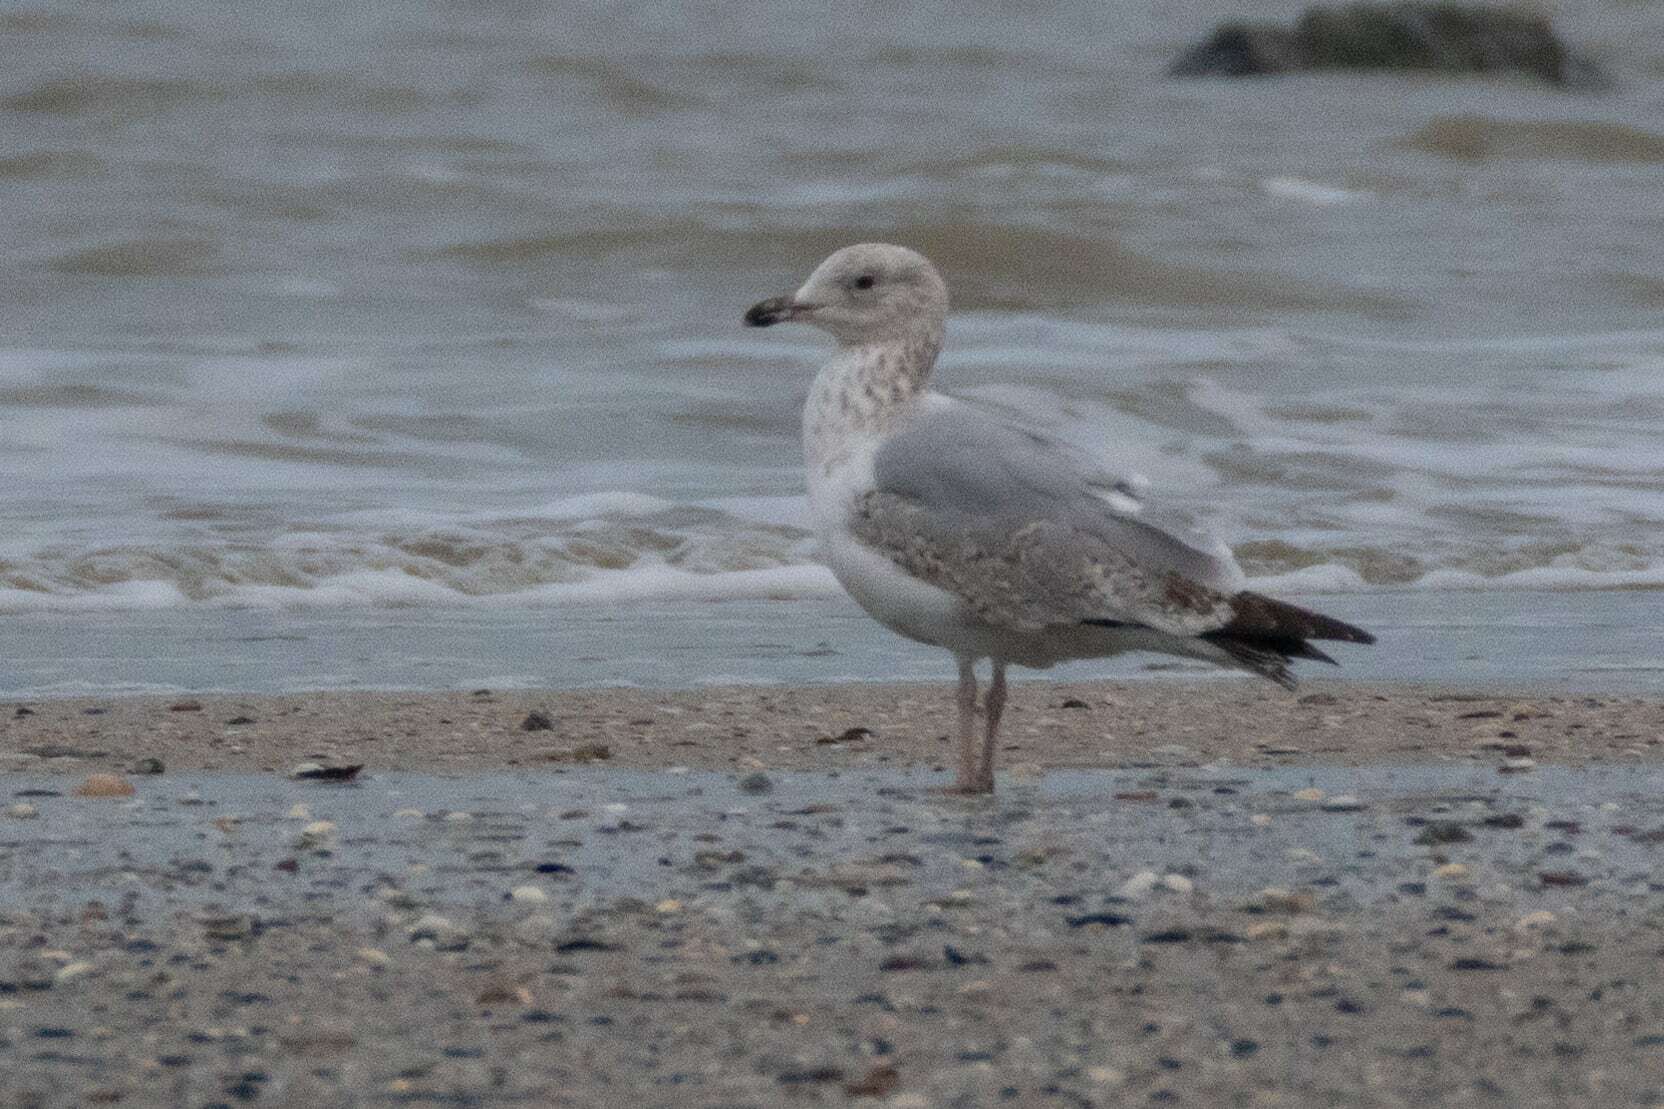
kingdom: Animalia
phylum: Chordata
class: Aves
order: Charadriiformes
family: Laridae
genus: Larus
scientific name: Larus argentatus
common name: Herring gull
